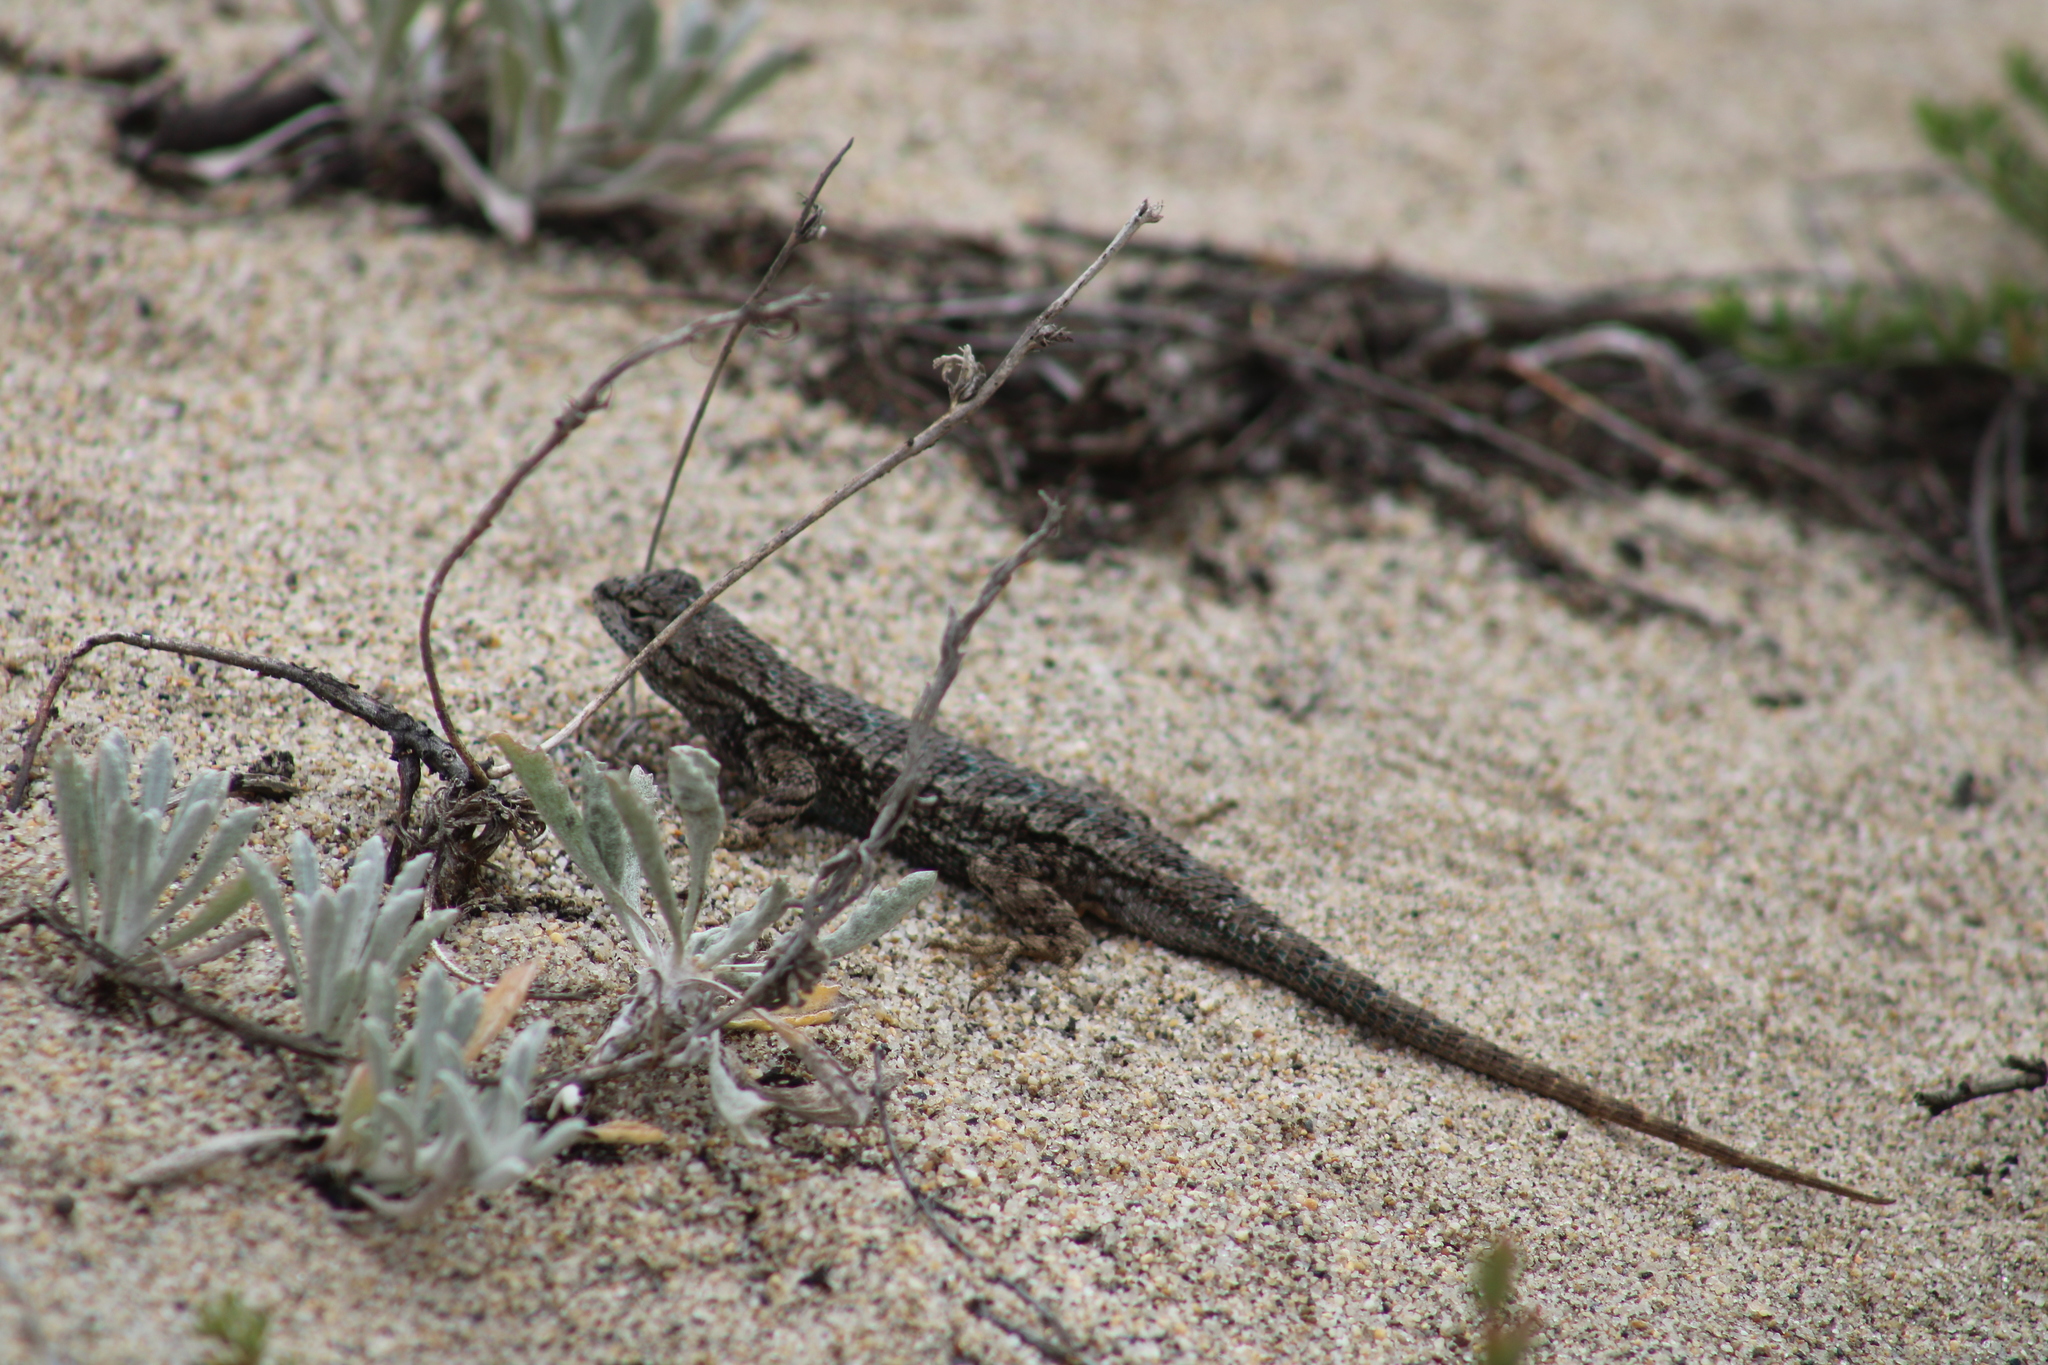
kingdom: Animalia
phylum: Chordata
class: Squamata
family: Phrynosomatidae
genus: Sceloporus
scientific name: Sceloporus occidentalis
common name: Western fence lizard
